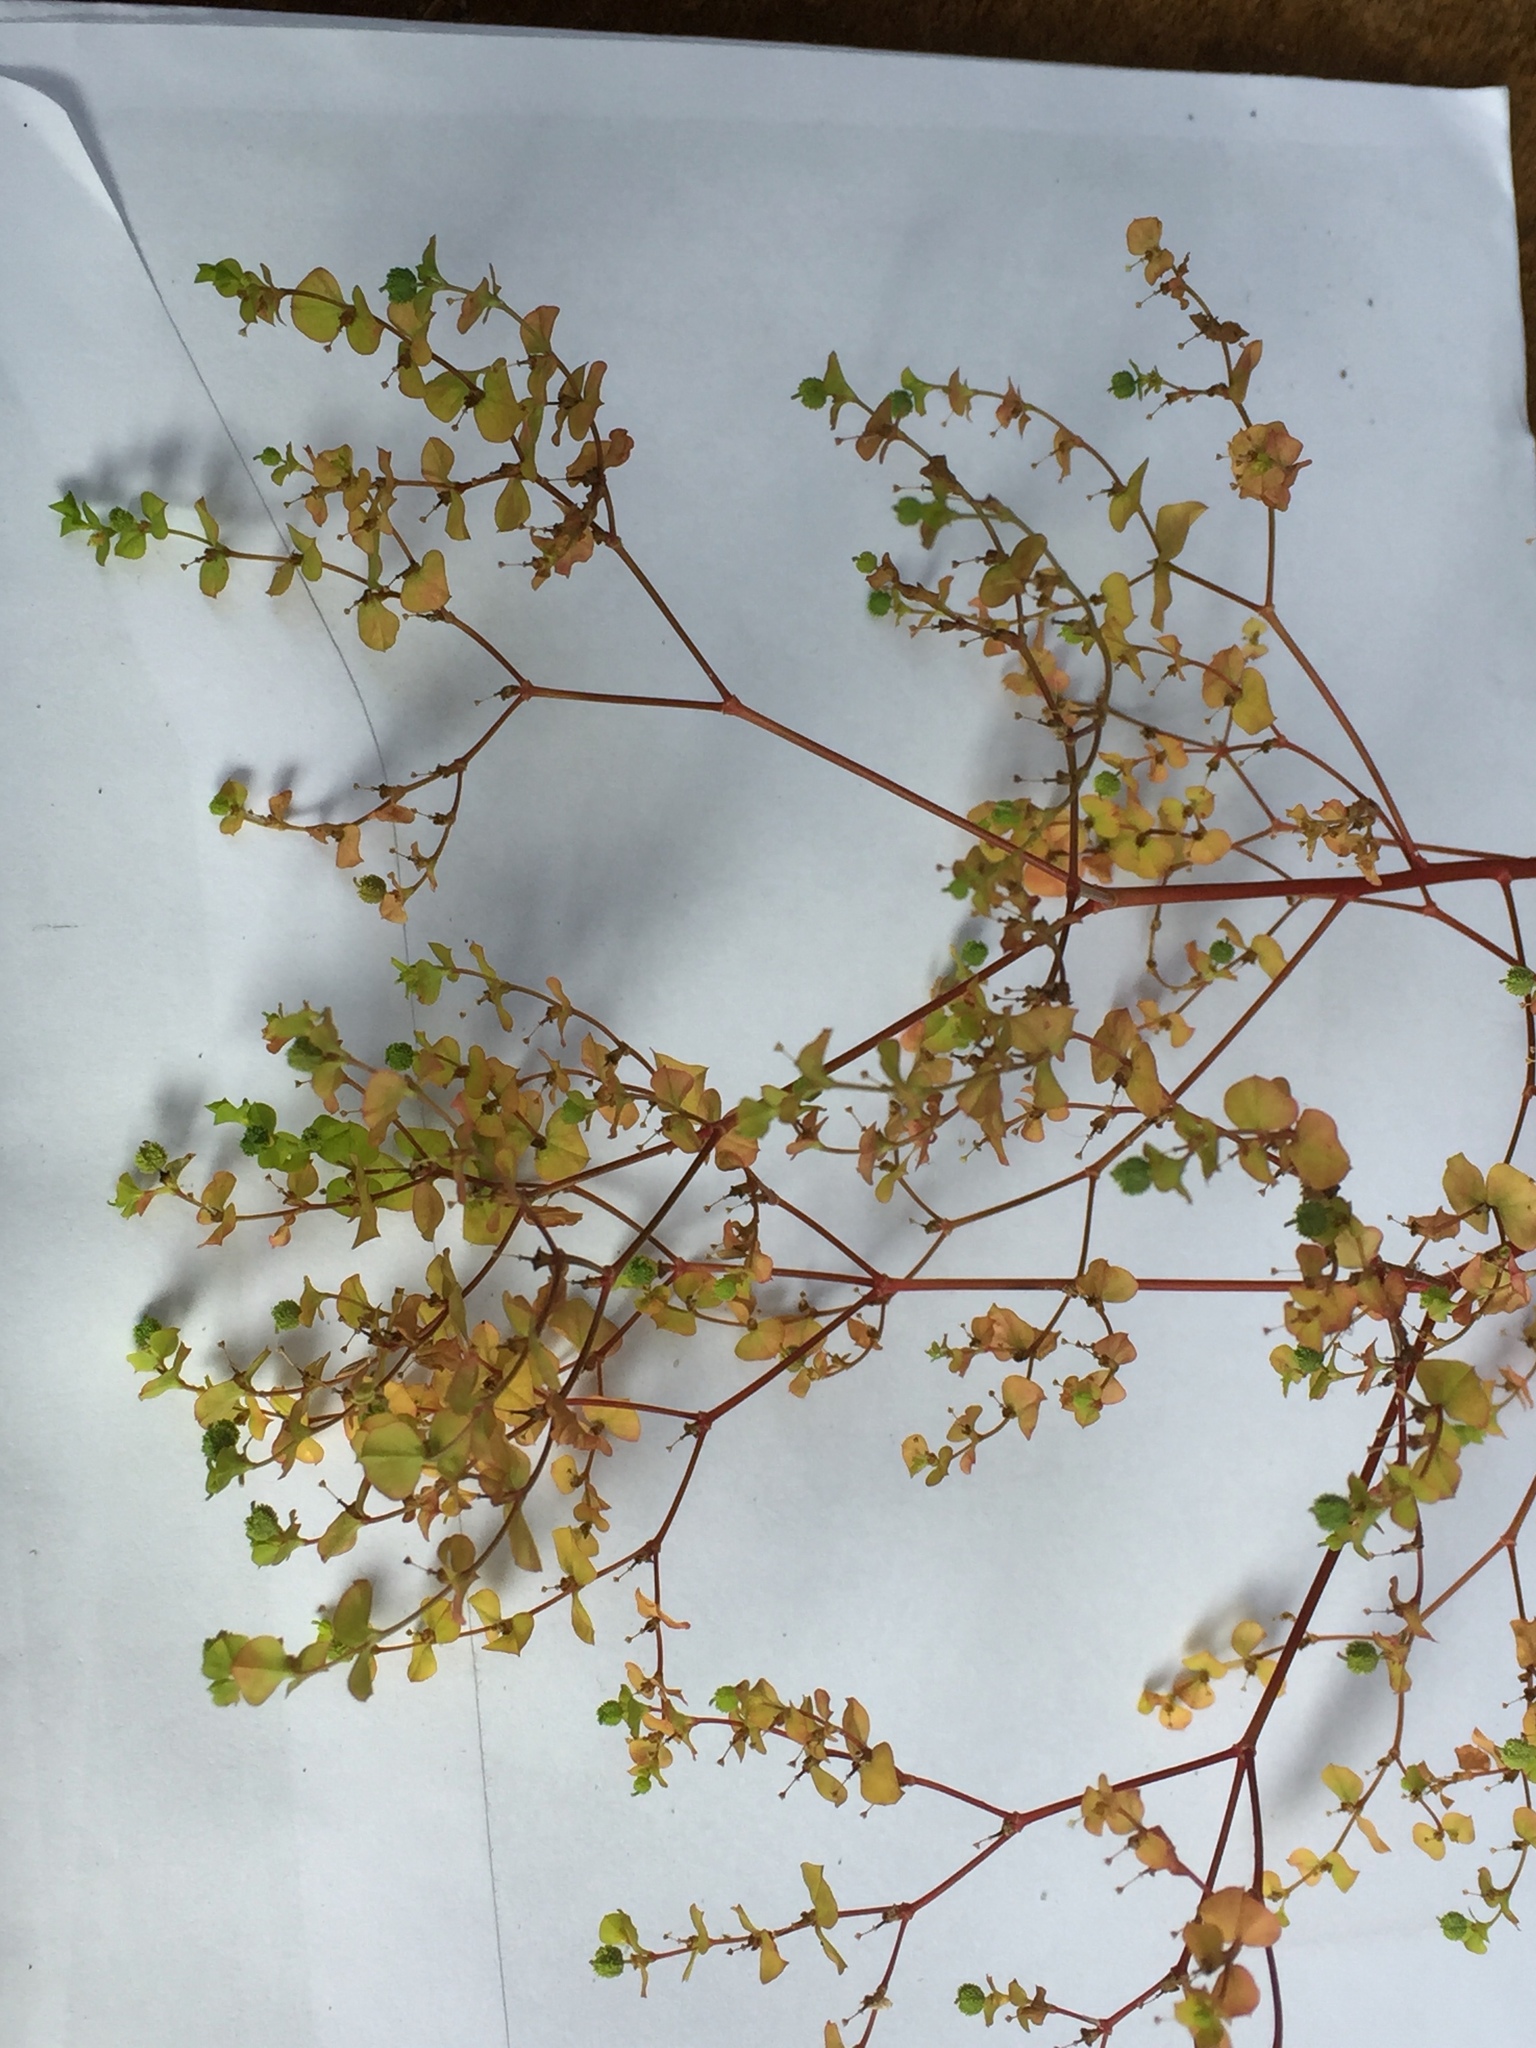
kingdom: Plantae
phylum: Tracheophyta
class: Magnoliopsida
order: Malpighiales
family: Euphorbiaceae
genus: Euphorbia
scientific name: Euphorbia stricta
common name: Upright spurge
